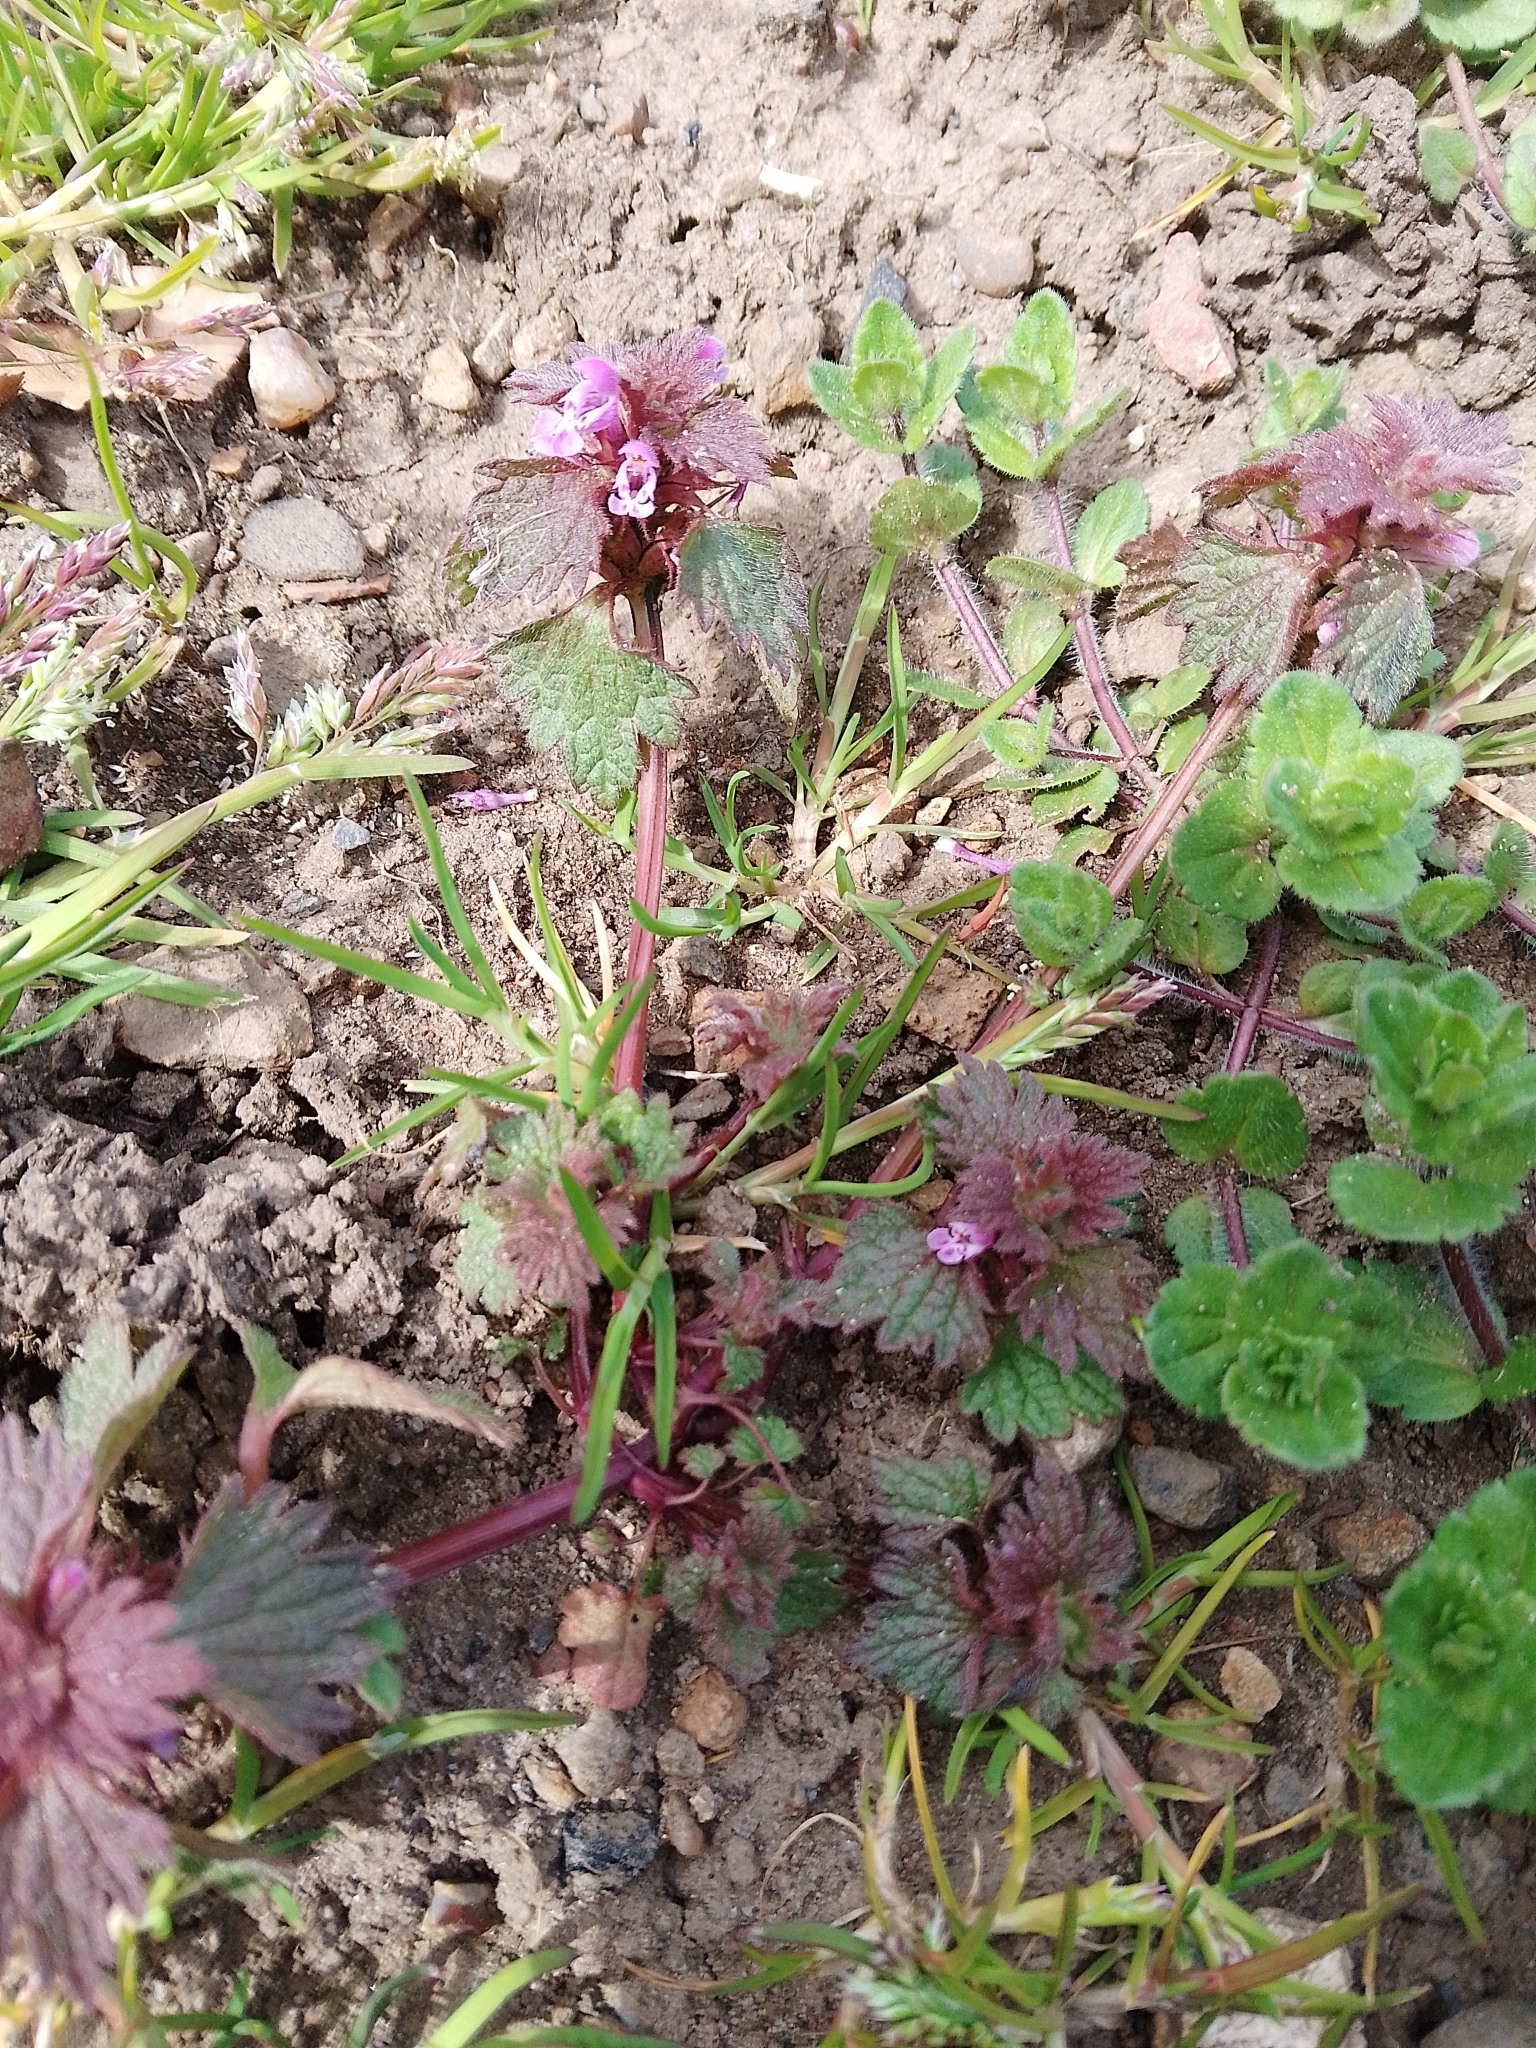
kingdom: Plantae
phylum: Tracheophyta
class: Magnoliopsida
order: Lamiales
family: Lamiaceae
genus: Lamium
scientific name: Lamium hybridum
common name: Cut-leaved dead-nettle
